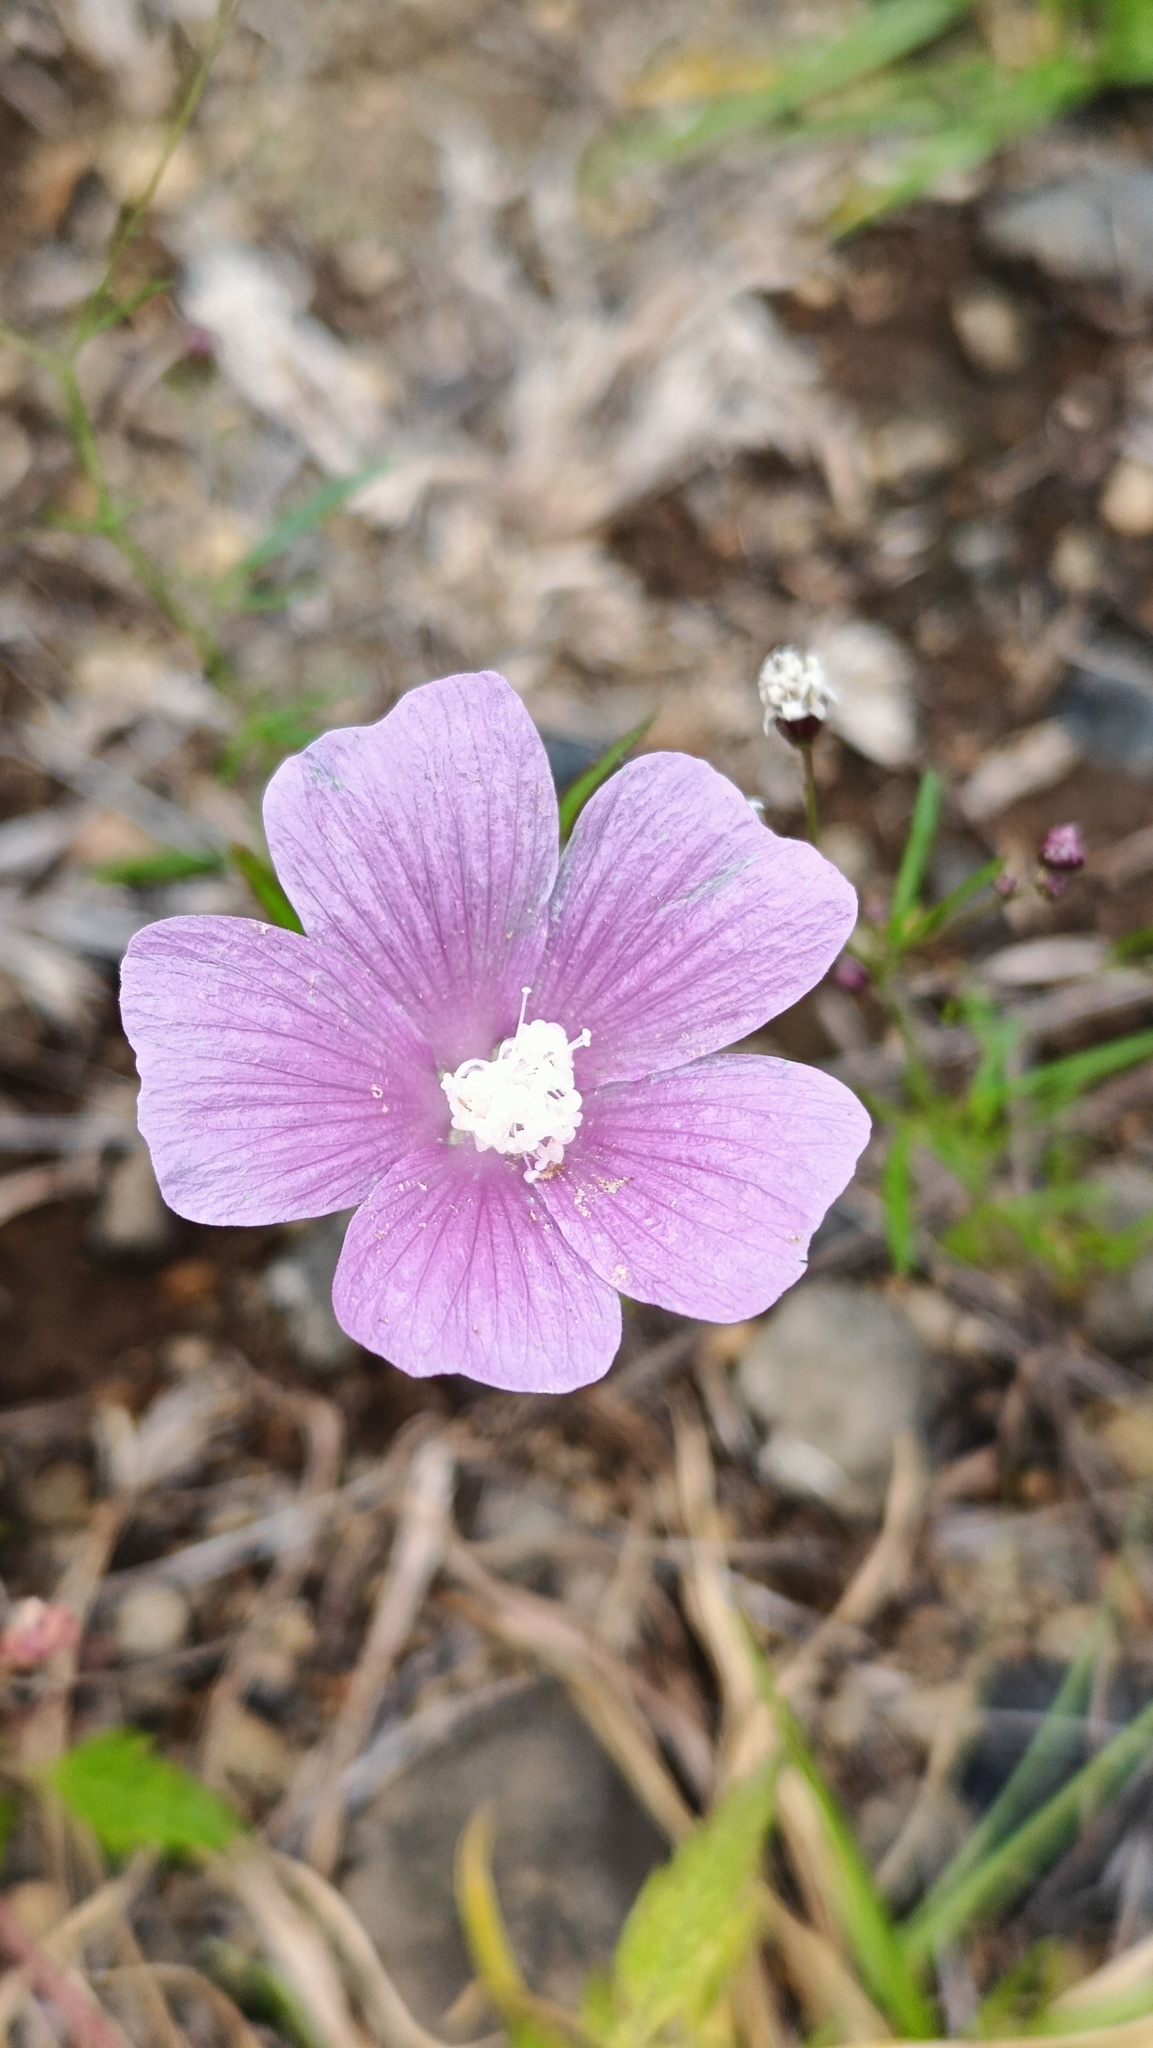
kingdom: Plantae
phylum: Tracheophyta
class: Magnoliopsida
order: Malvales
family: Malvaceae
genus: Anoda
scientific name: Anoda cristata
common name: Spurred anoda
